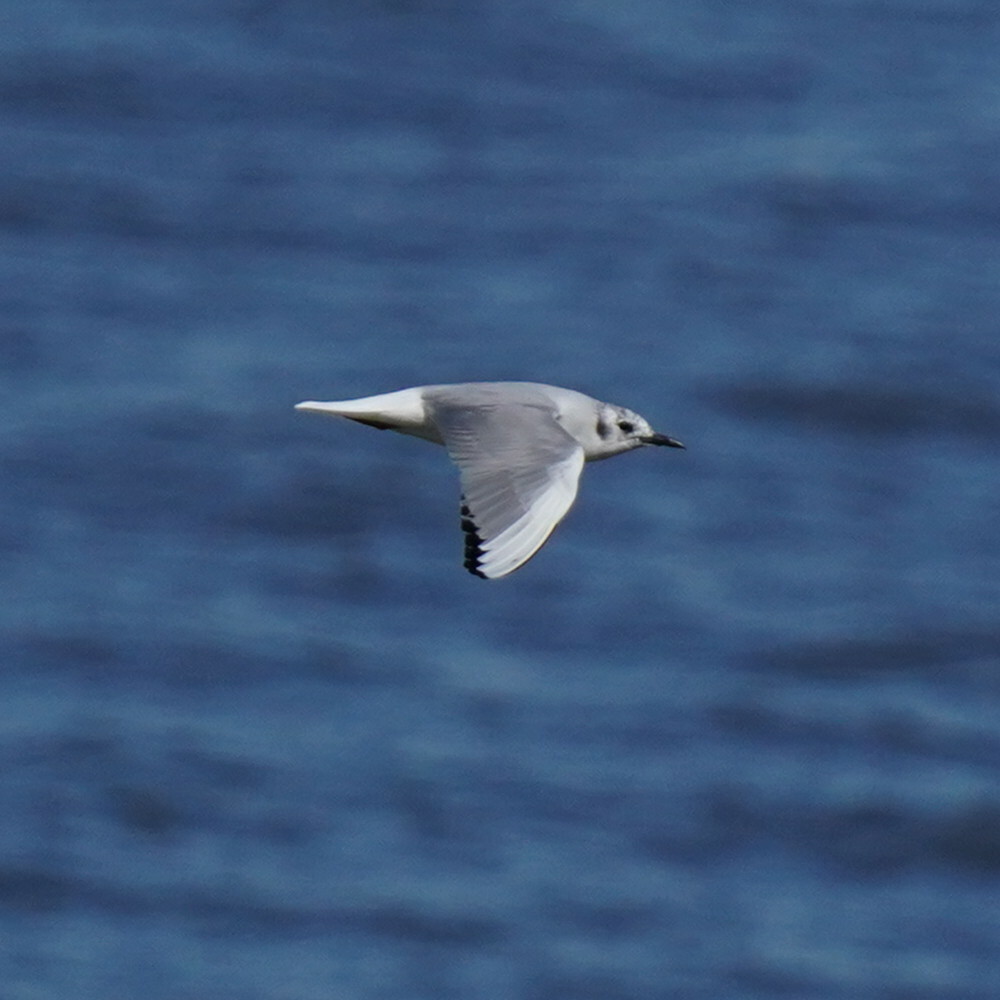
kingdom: Animalia
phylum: Chordata
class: Aves
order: Charadriiformes
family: Laridae
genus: Chroicocephalus
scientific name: Chroicocephalus philadelphia
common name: Bonaparte's gull
